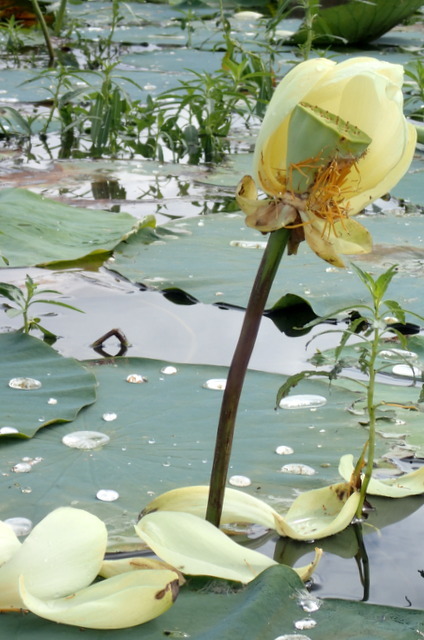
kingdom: Plantae
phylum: Tracheophyta
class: Magnoliopsida
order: Proteales
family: Nelumbonaceae
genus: Nelumbo
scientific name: Nelumbo lutea
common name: American lotus
